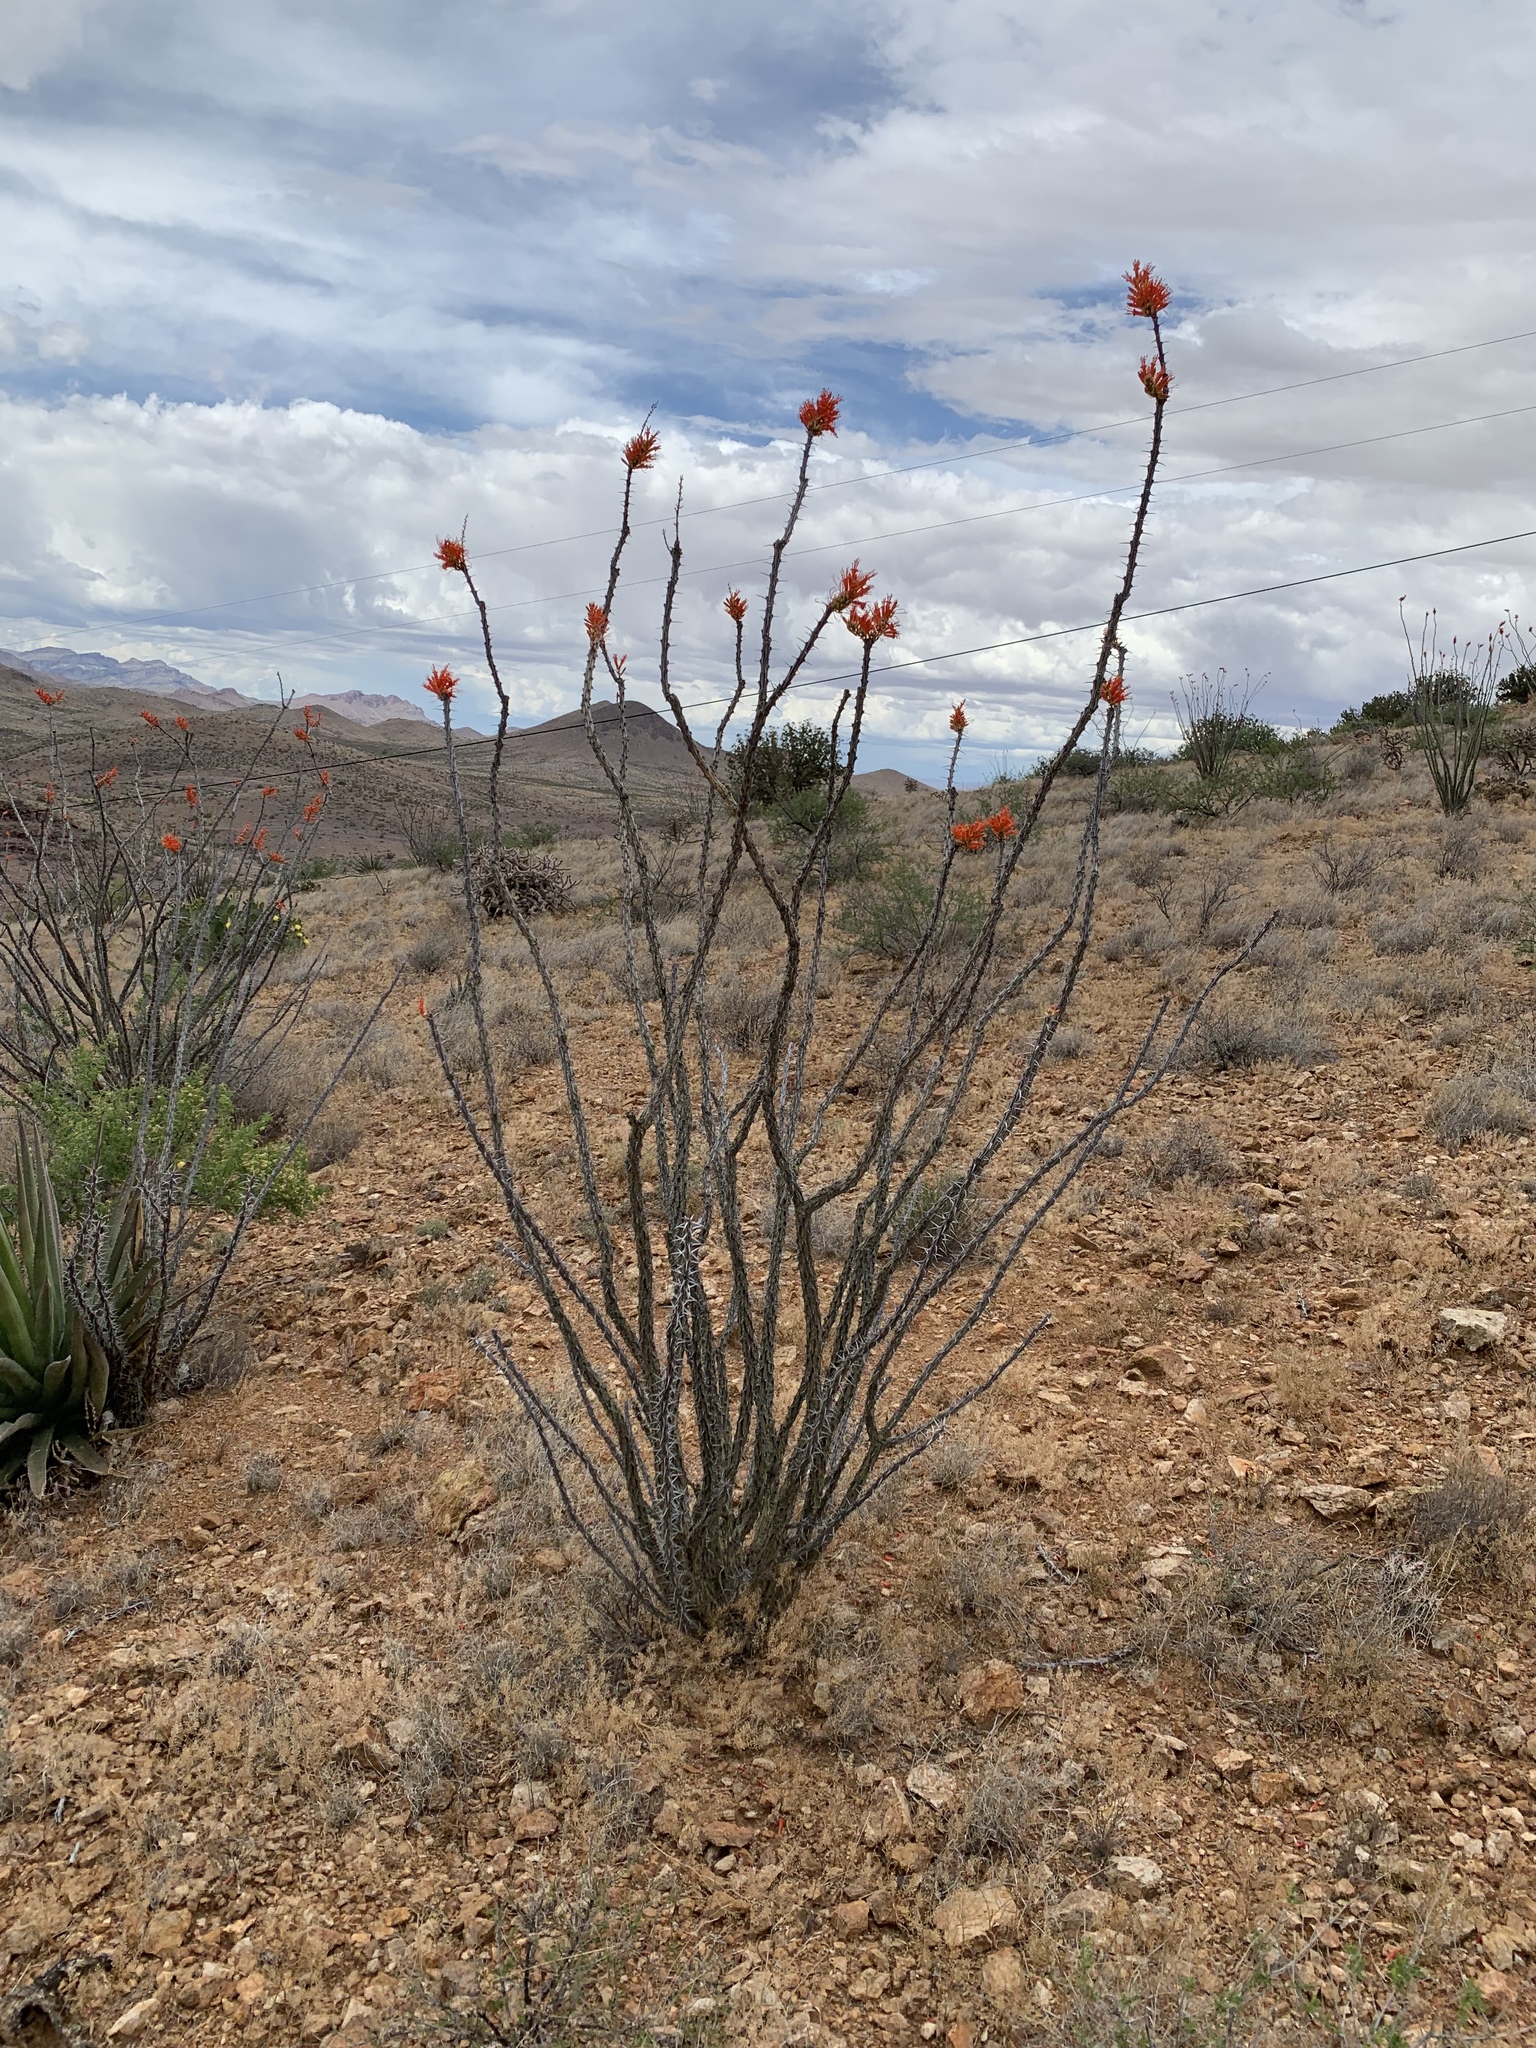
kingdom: Plantae
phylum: Tracheophyta
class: Magnoliopsida
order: Ericales
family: Fouquieriaceae
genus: Fouquieria
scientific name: Fouquieria splendens
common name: Vine-cactus
